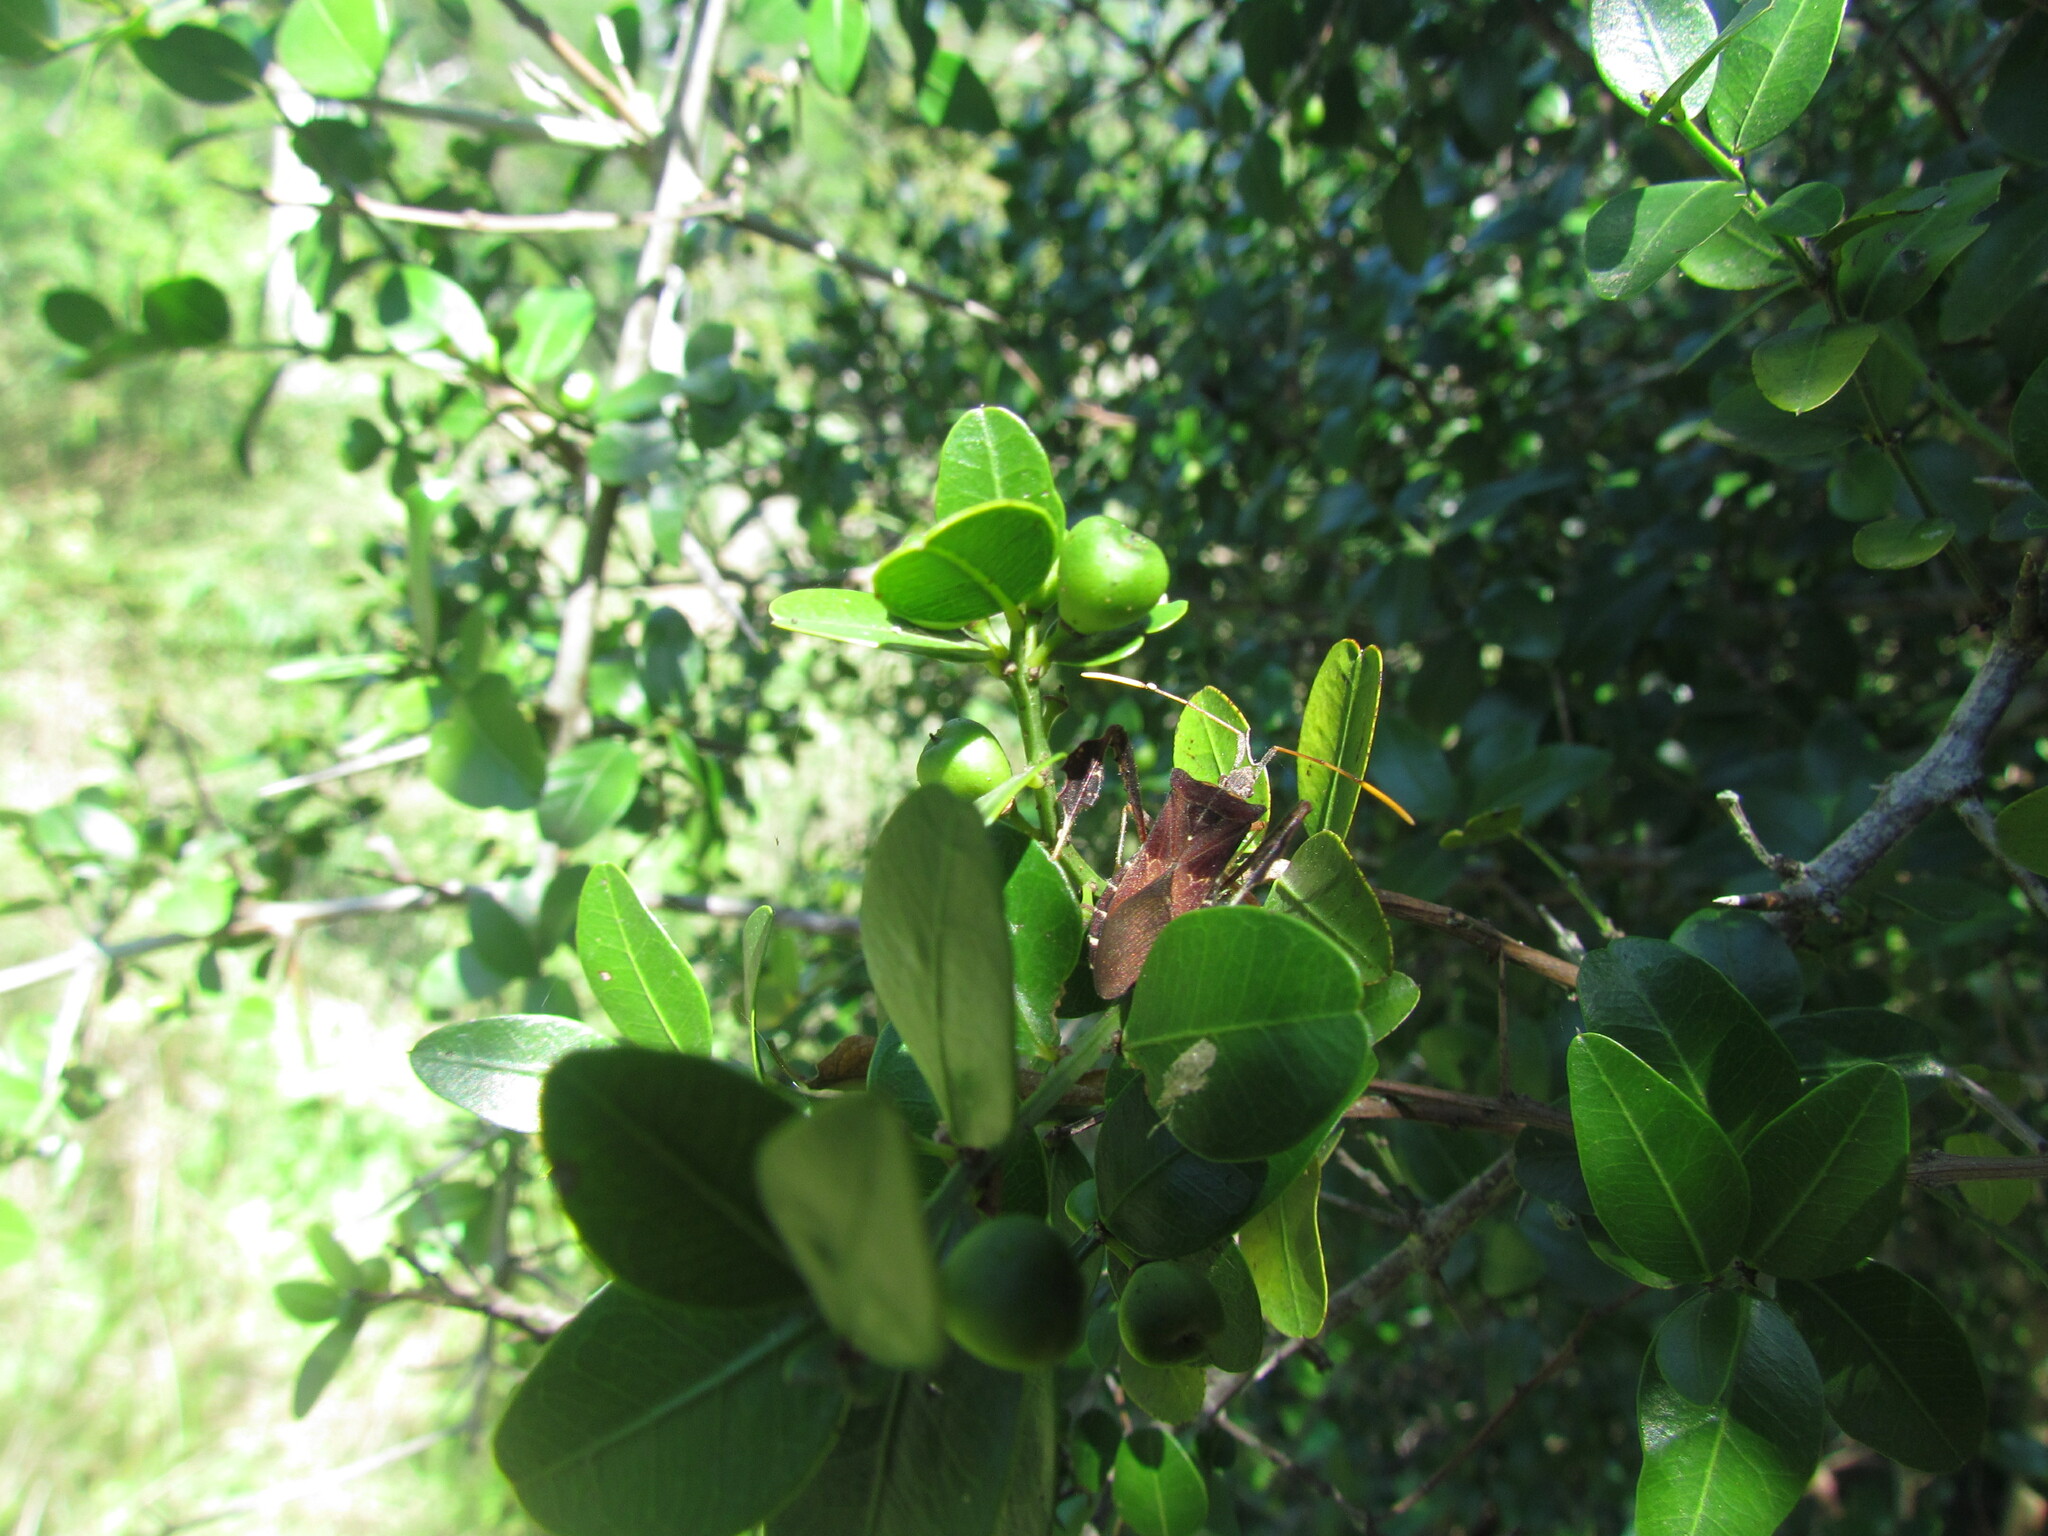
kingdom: Plantae
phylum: Tracheophyta
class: Magnoliopsida
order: Rosales
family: Rhamnaceae
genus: Scutia
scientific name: Scutia buxifolia
